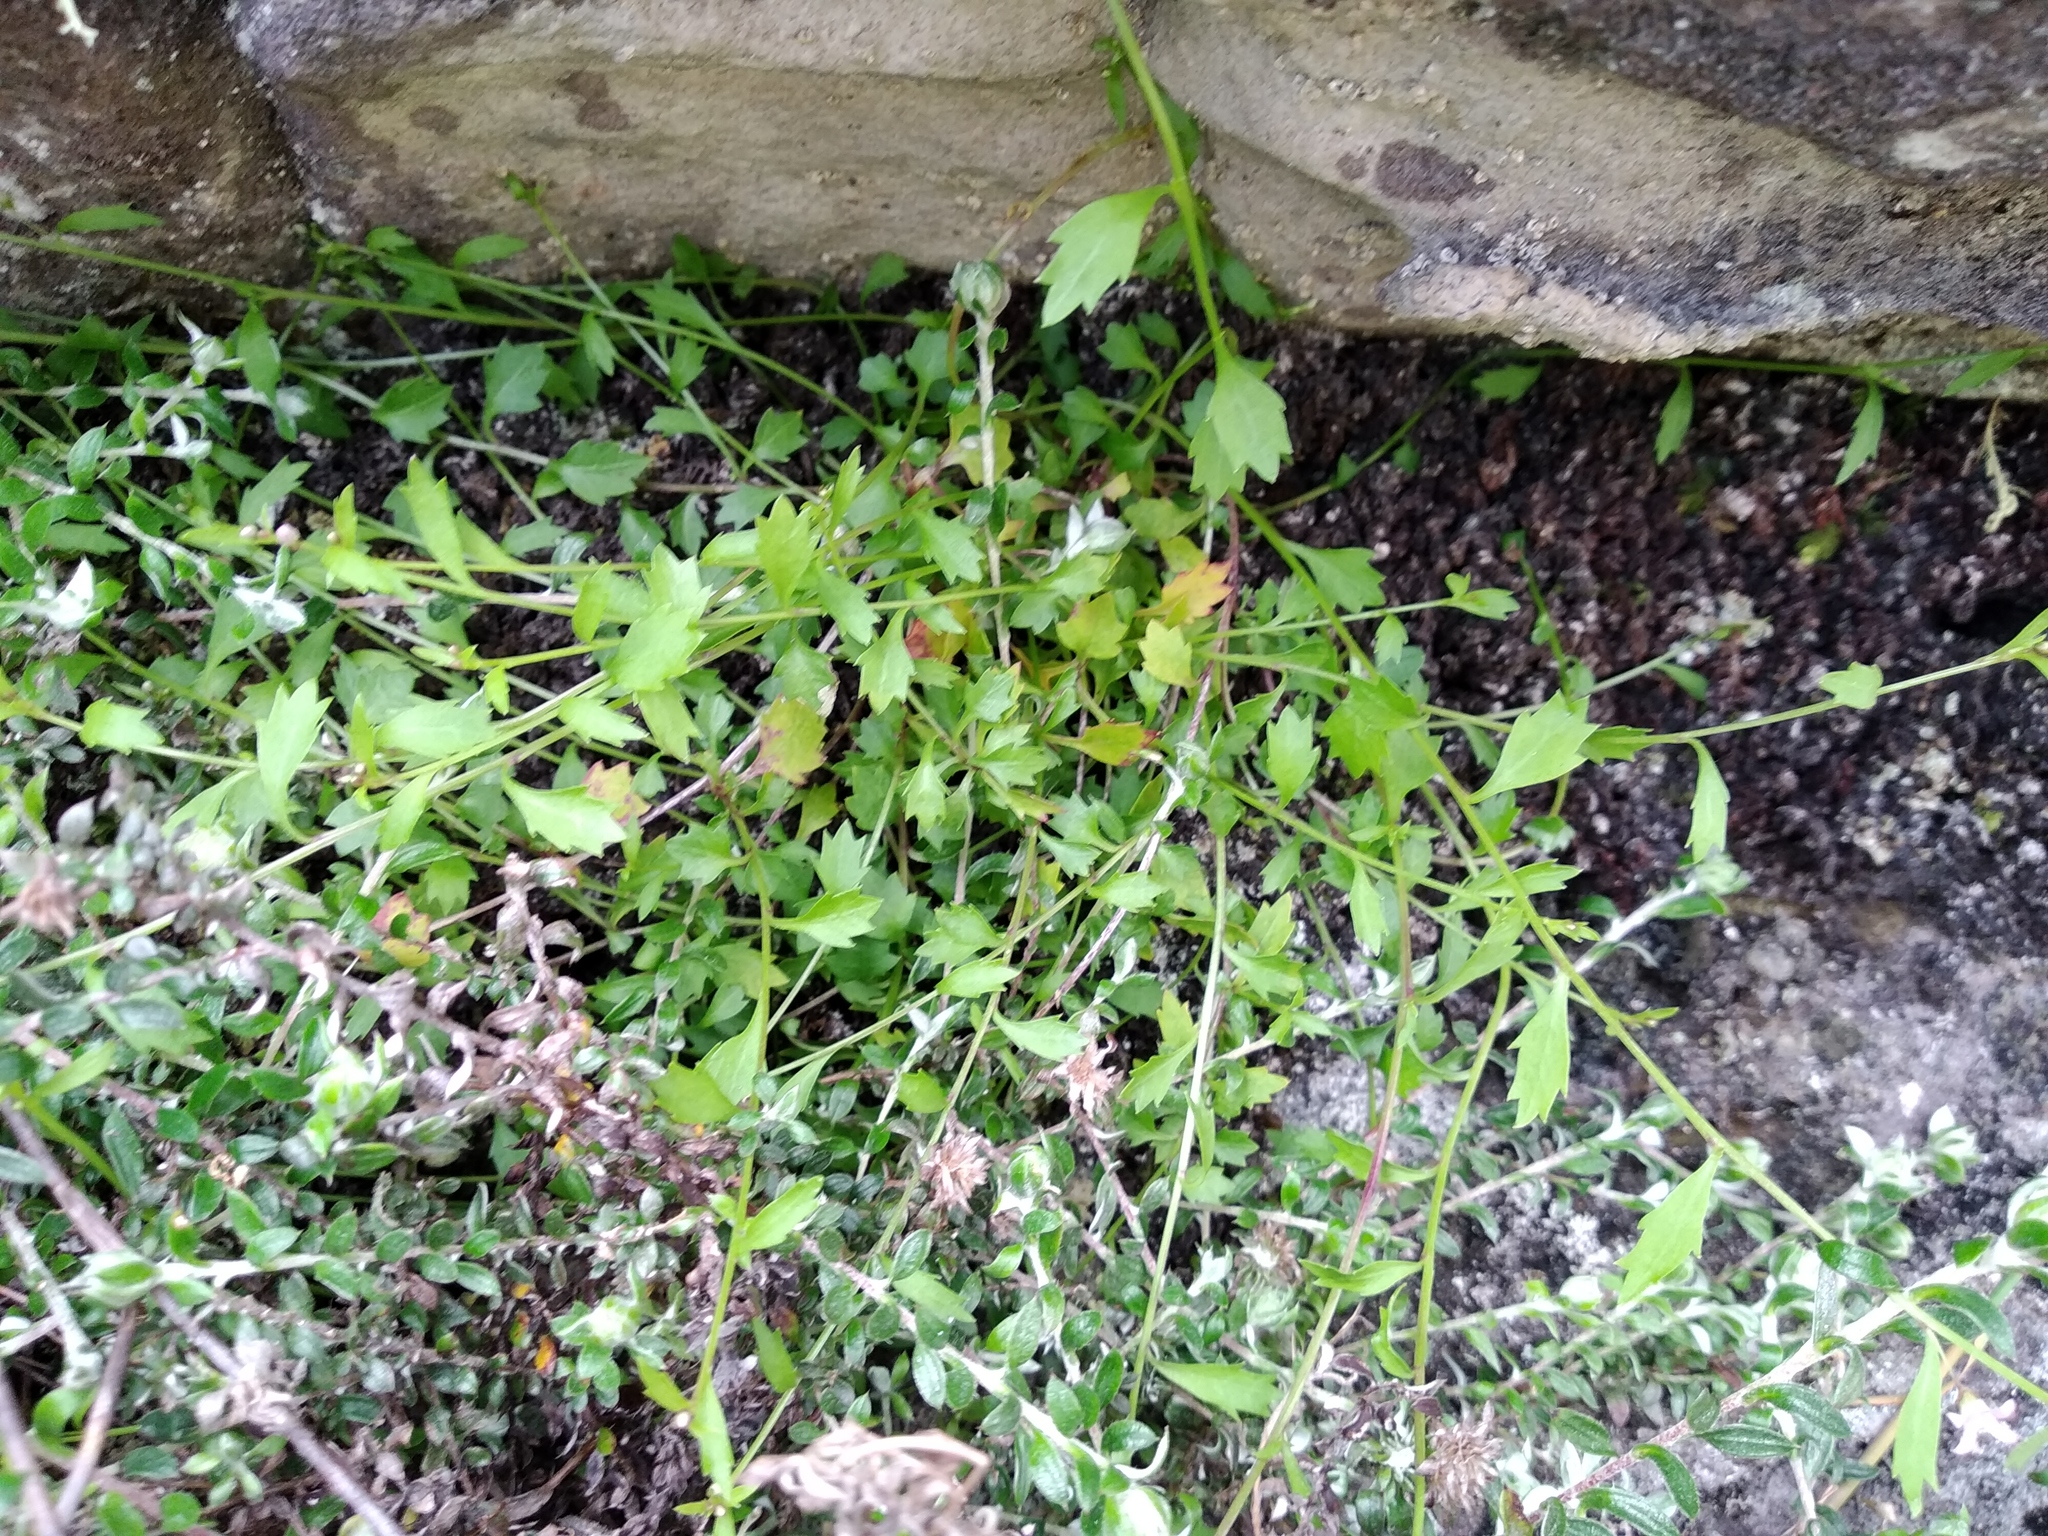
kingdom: Plantae
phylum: Tracheophyta
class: Magnoliopsida
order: Asterales
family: Campanulaceae
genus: Lobelia
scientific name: Lobelia eckloniana
